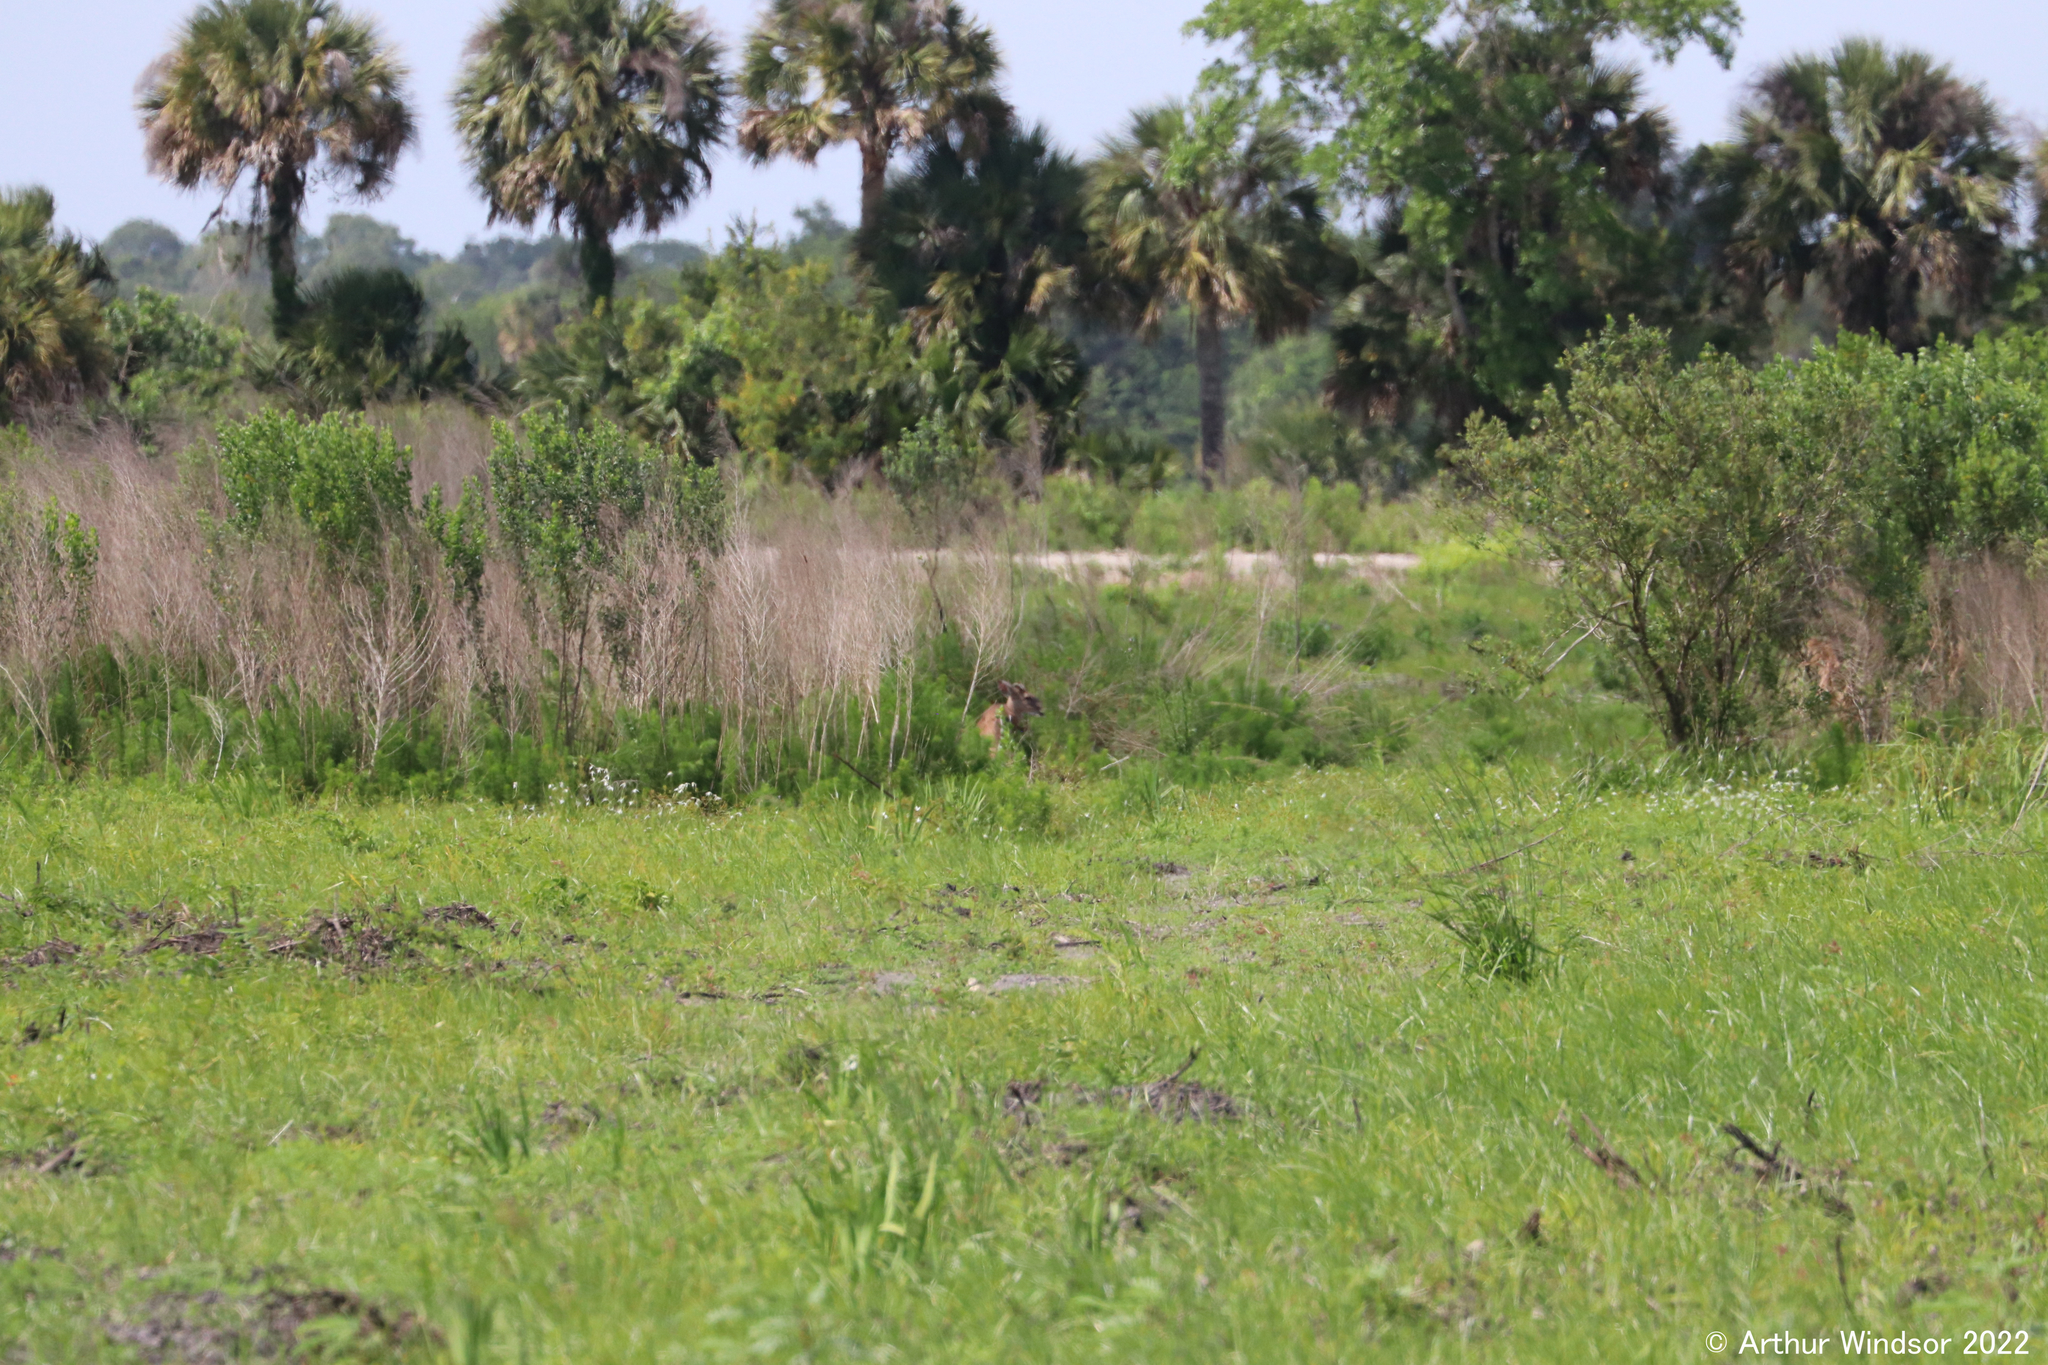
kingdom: Animalia
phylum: Chordata
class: Mammalia
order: Artiodactyla
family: Cervidae
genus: Odocoileus
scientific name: Odocoileus virginianus
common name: White-tailed deer
